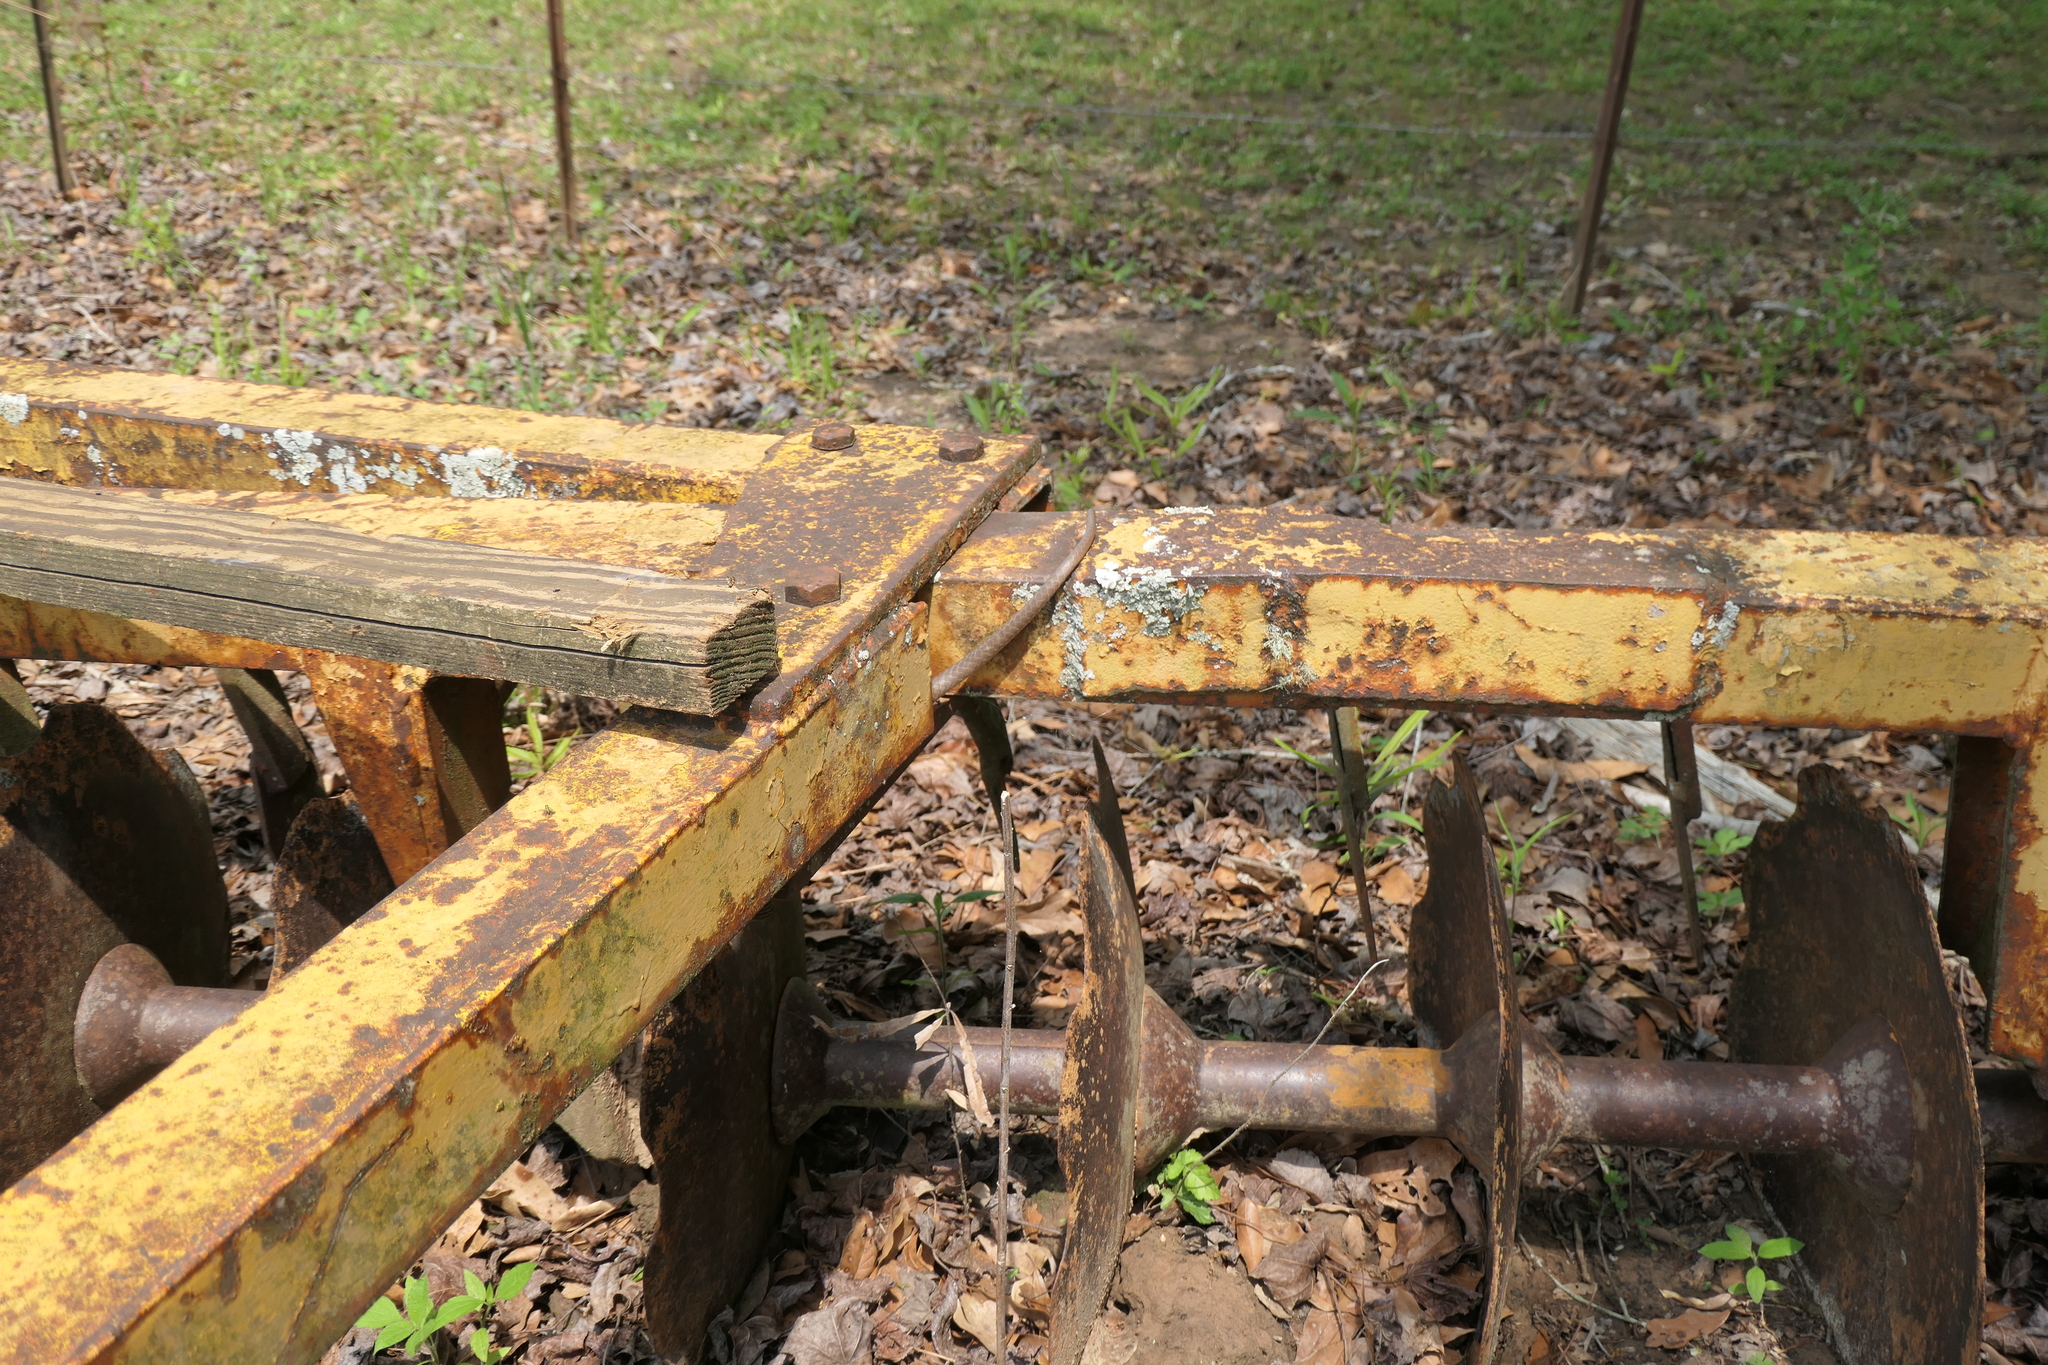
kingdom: Animalia
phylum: Chordata
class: Squamata
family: Colubridae
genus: Coluber
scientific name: Coluber constrictor
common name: Eastern racer
